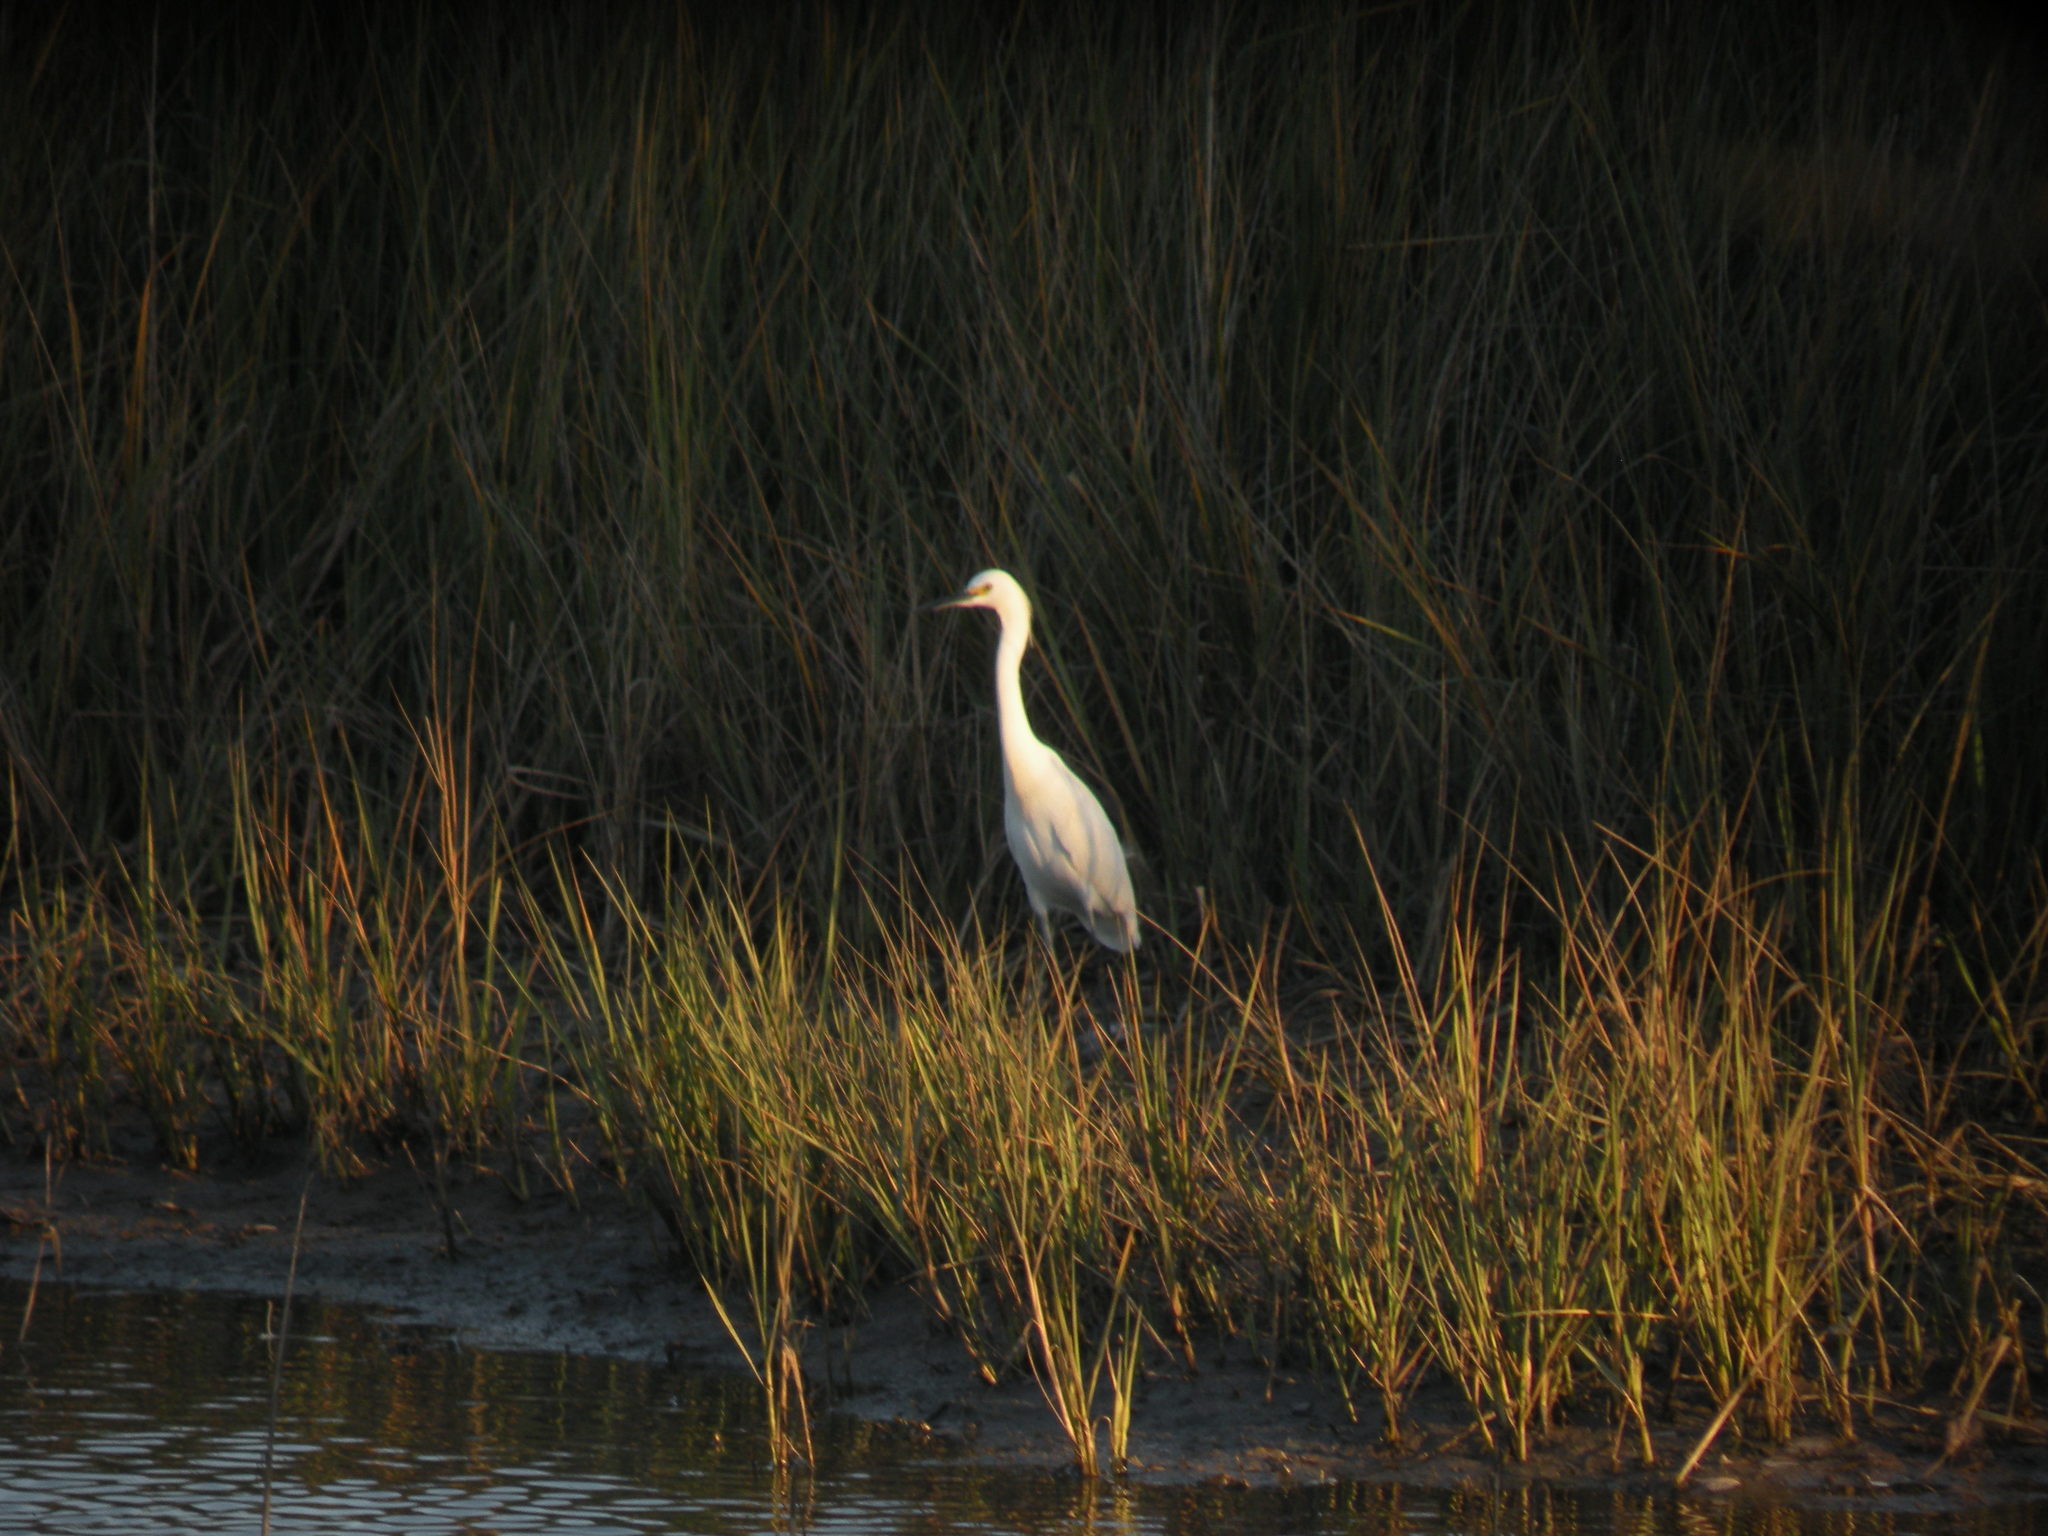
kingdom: Animalia
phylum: Chordata
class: Aves
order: Pelecaniformes
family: Ardeidae
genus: Egretta
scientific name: Egretta thula
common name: Snowy egret
